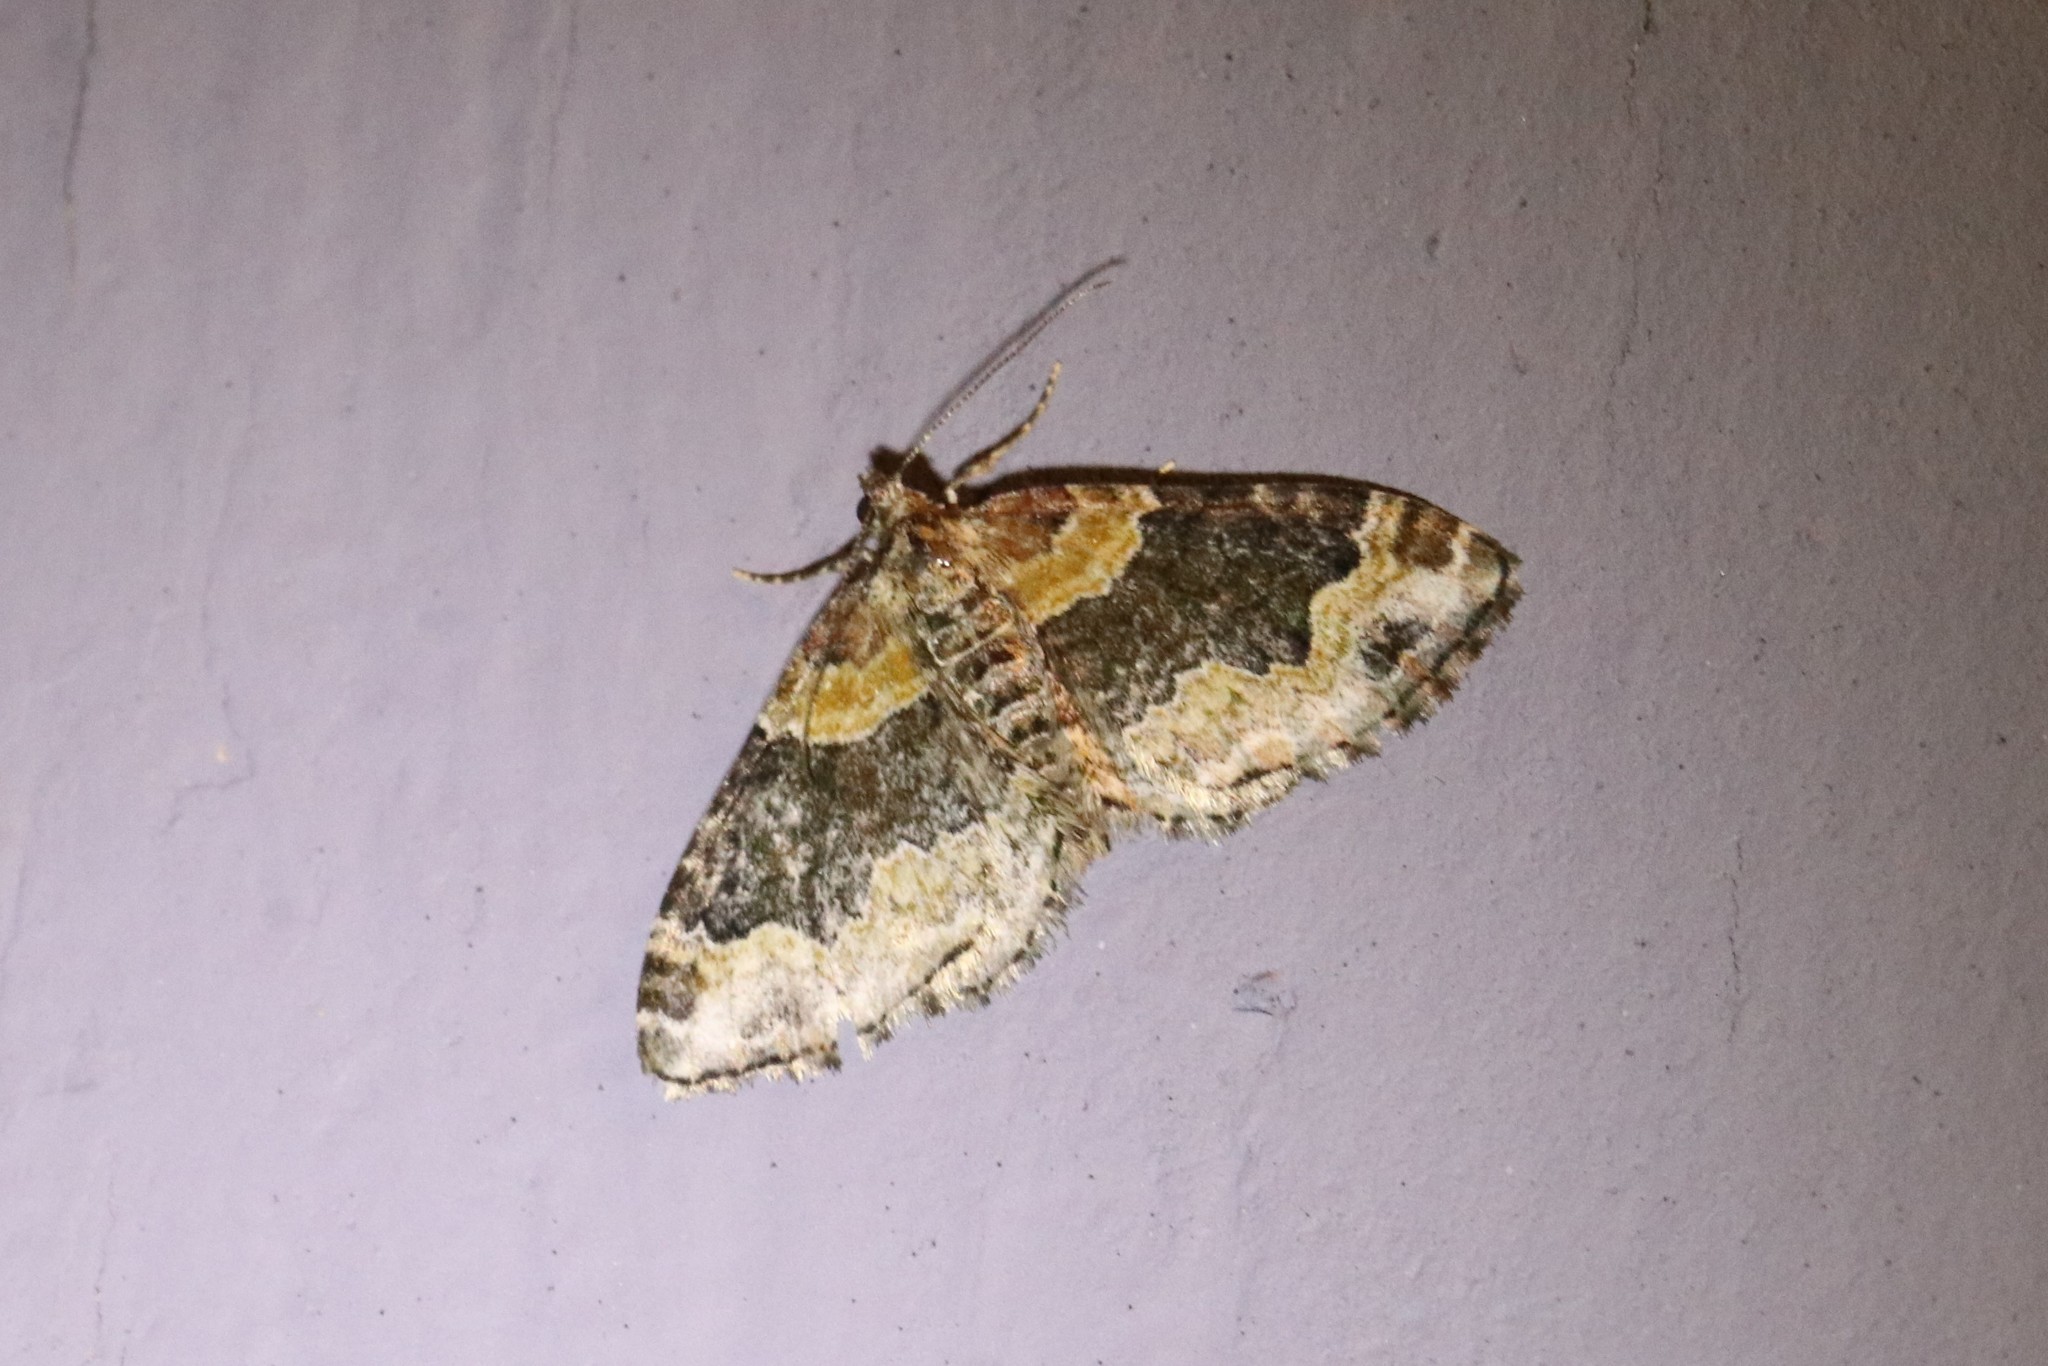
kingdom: Animalia
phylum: Arthropoda
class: Insecta
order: Lepidoptera
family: Geometridae
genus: Xanthorhoe
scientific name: Xanthorhoe ferrugata
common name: Dark-barred twin-spot carpet
